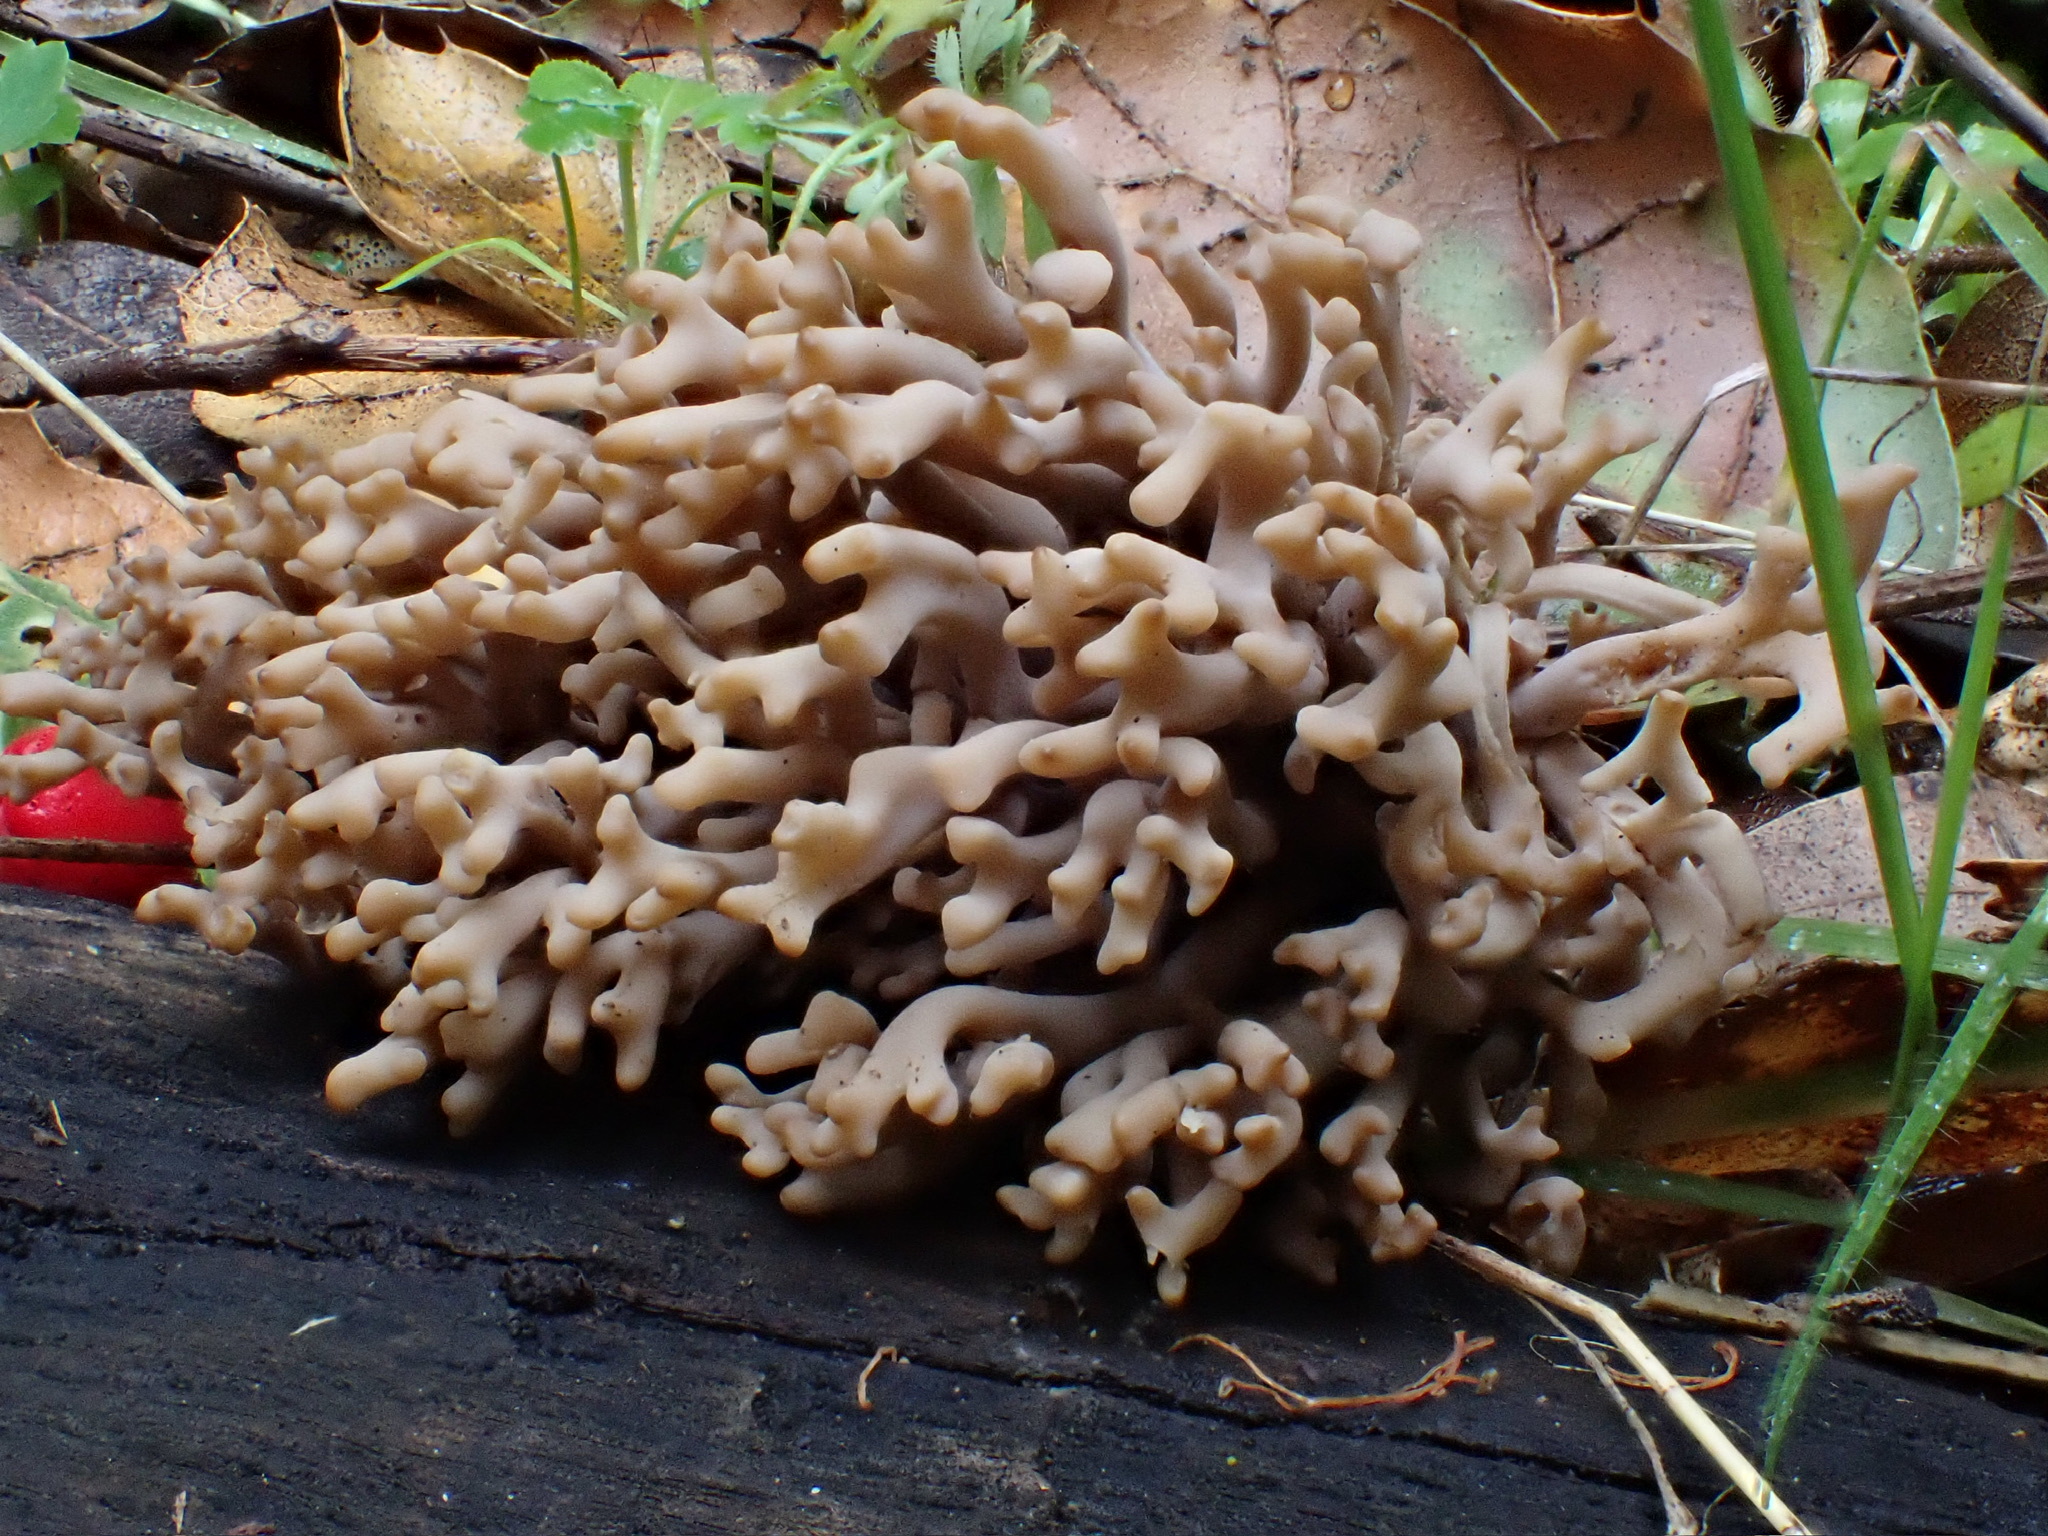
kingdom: Fungi
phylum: Basidiomycota
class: Agaricomycetes
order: Cantharellales
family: Hydnaceae
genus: Clavulina
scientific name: Clavulina cinerea
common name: Grey coral
